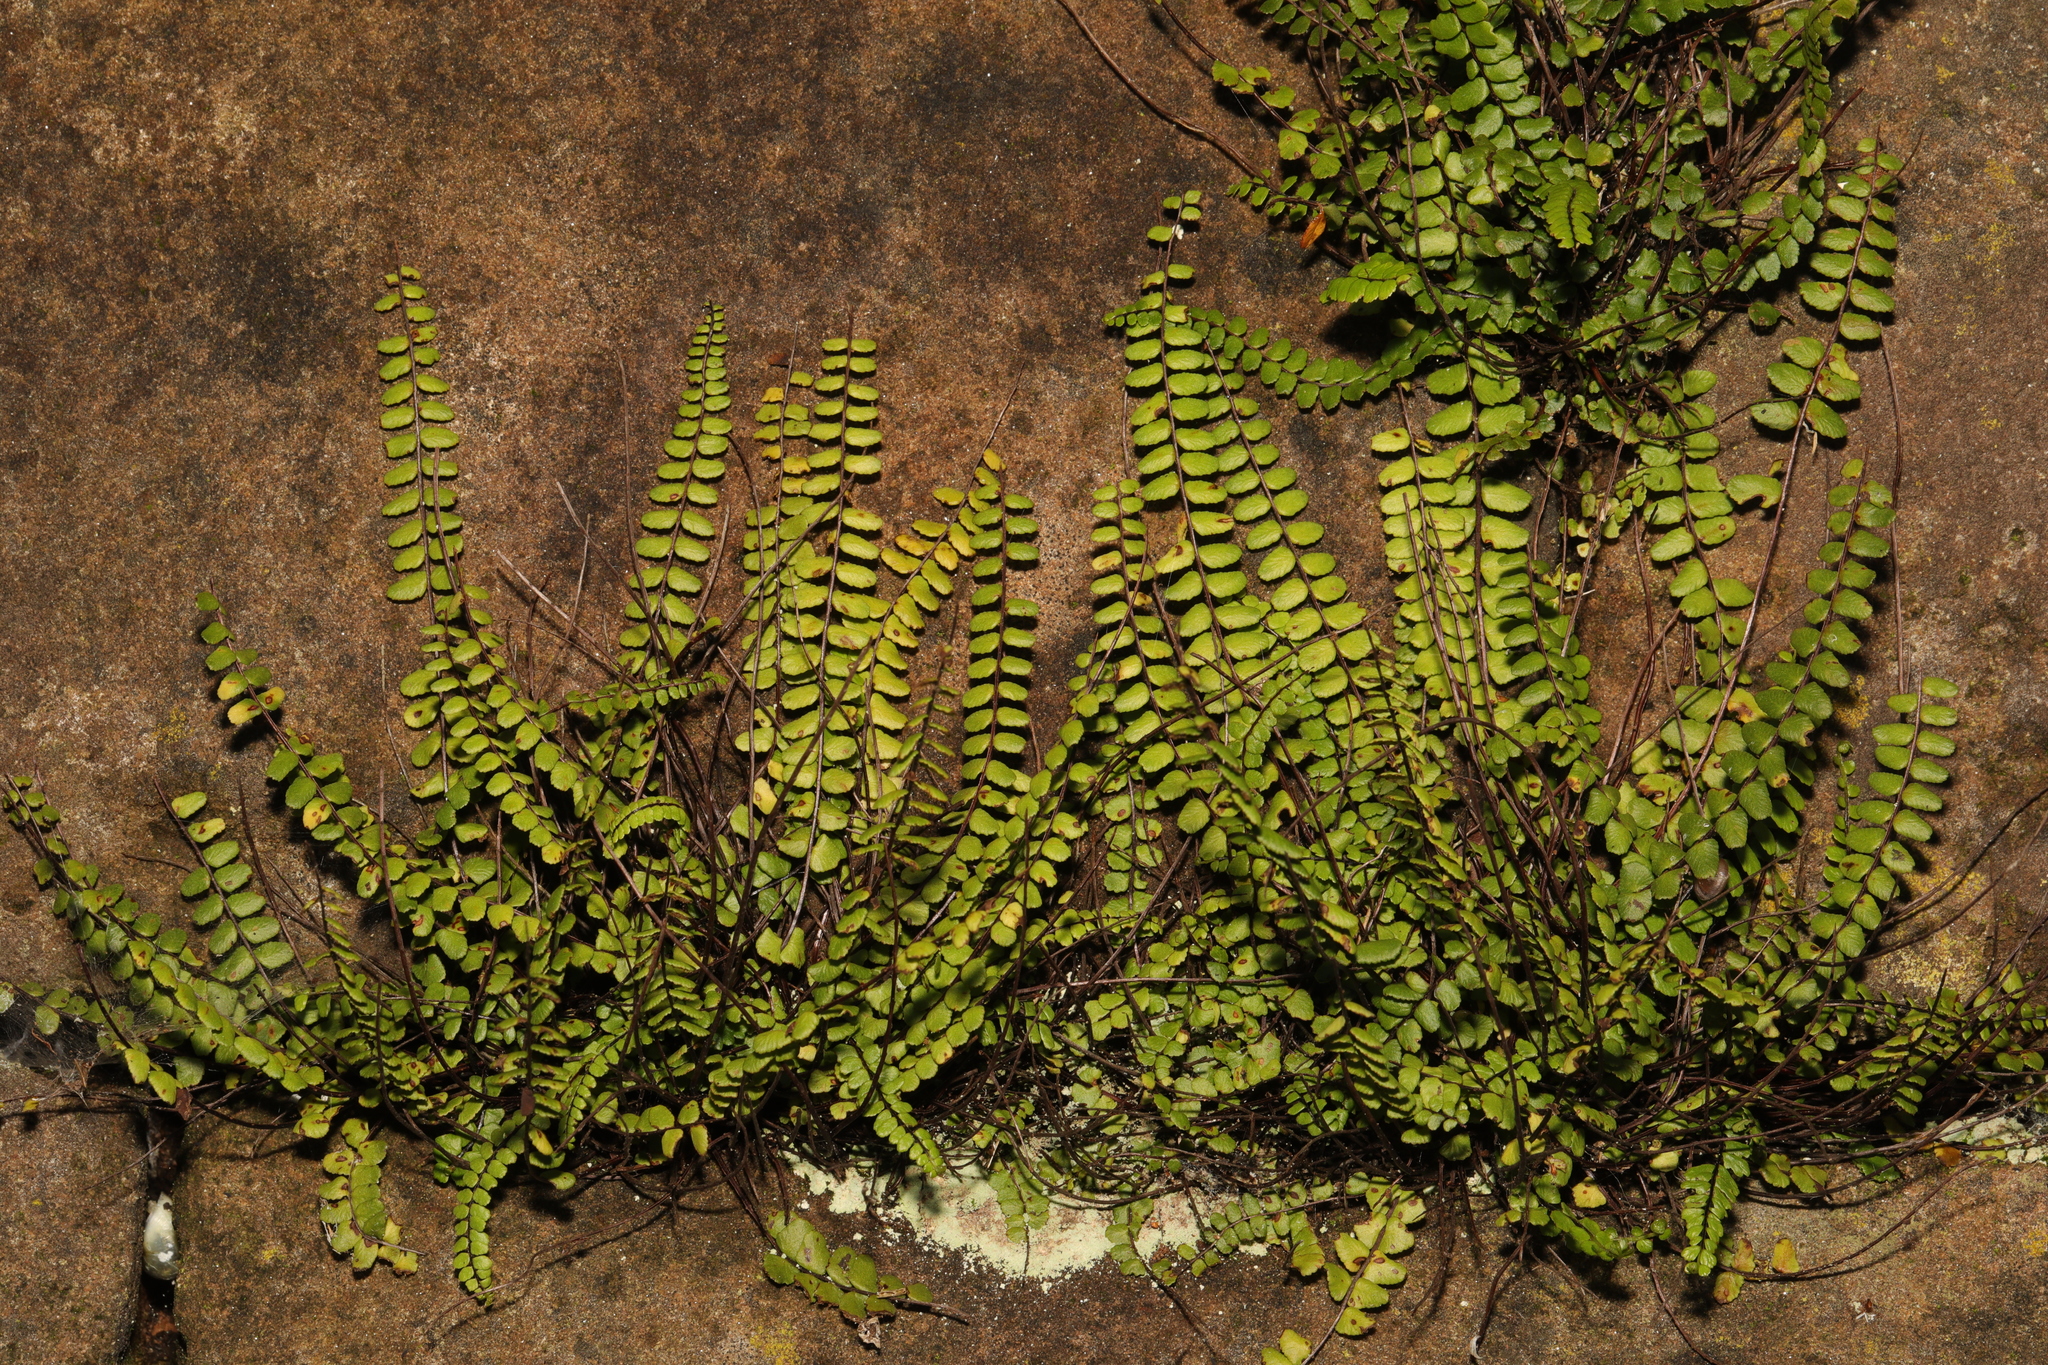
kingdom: Plantae
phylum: Tracheophyta
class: Polypodiopsida
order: Polypodiales
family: Aspleniaceae
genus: Asplenium
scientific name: Asplenium trichomanes
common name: Maidenhair spleenwort
